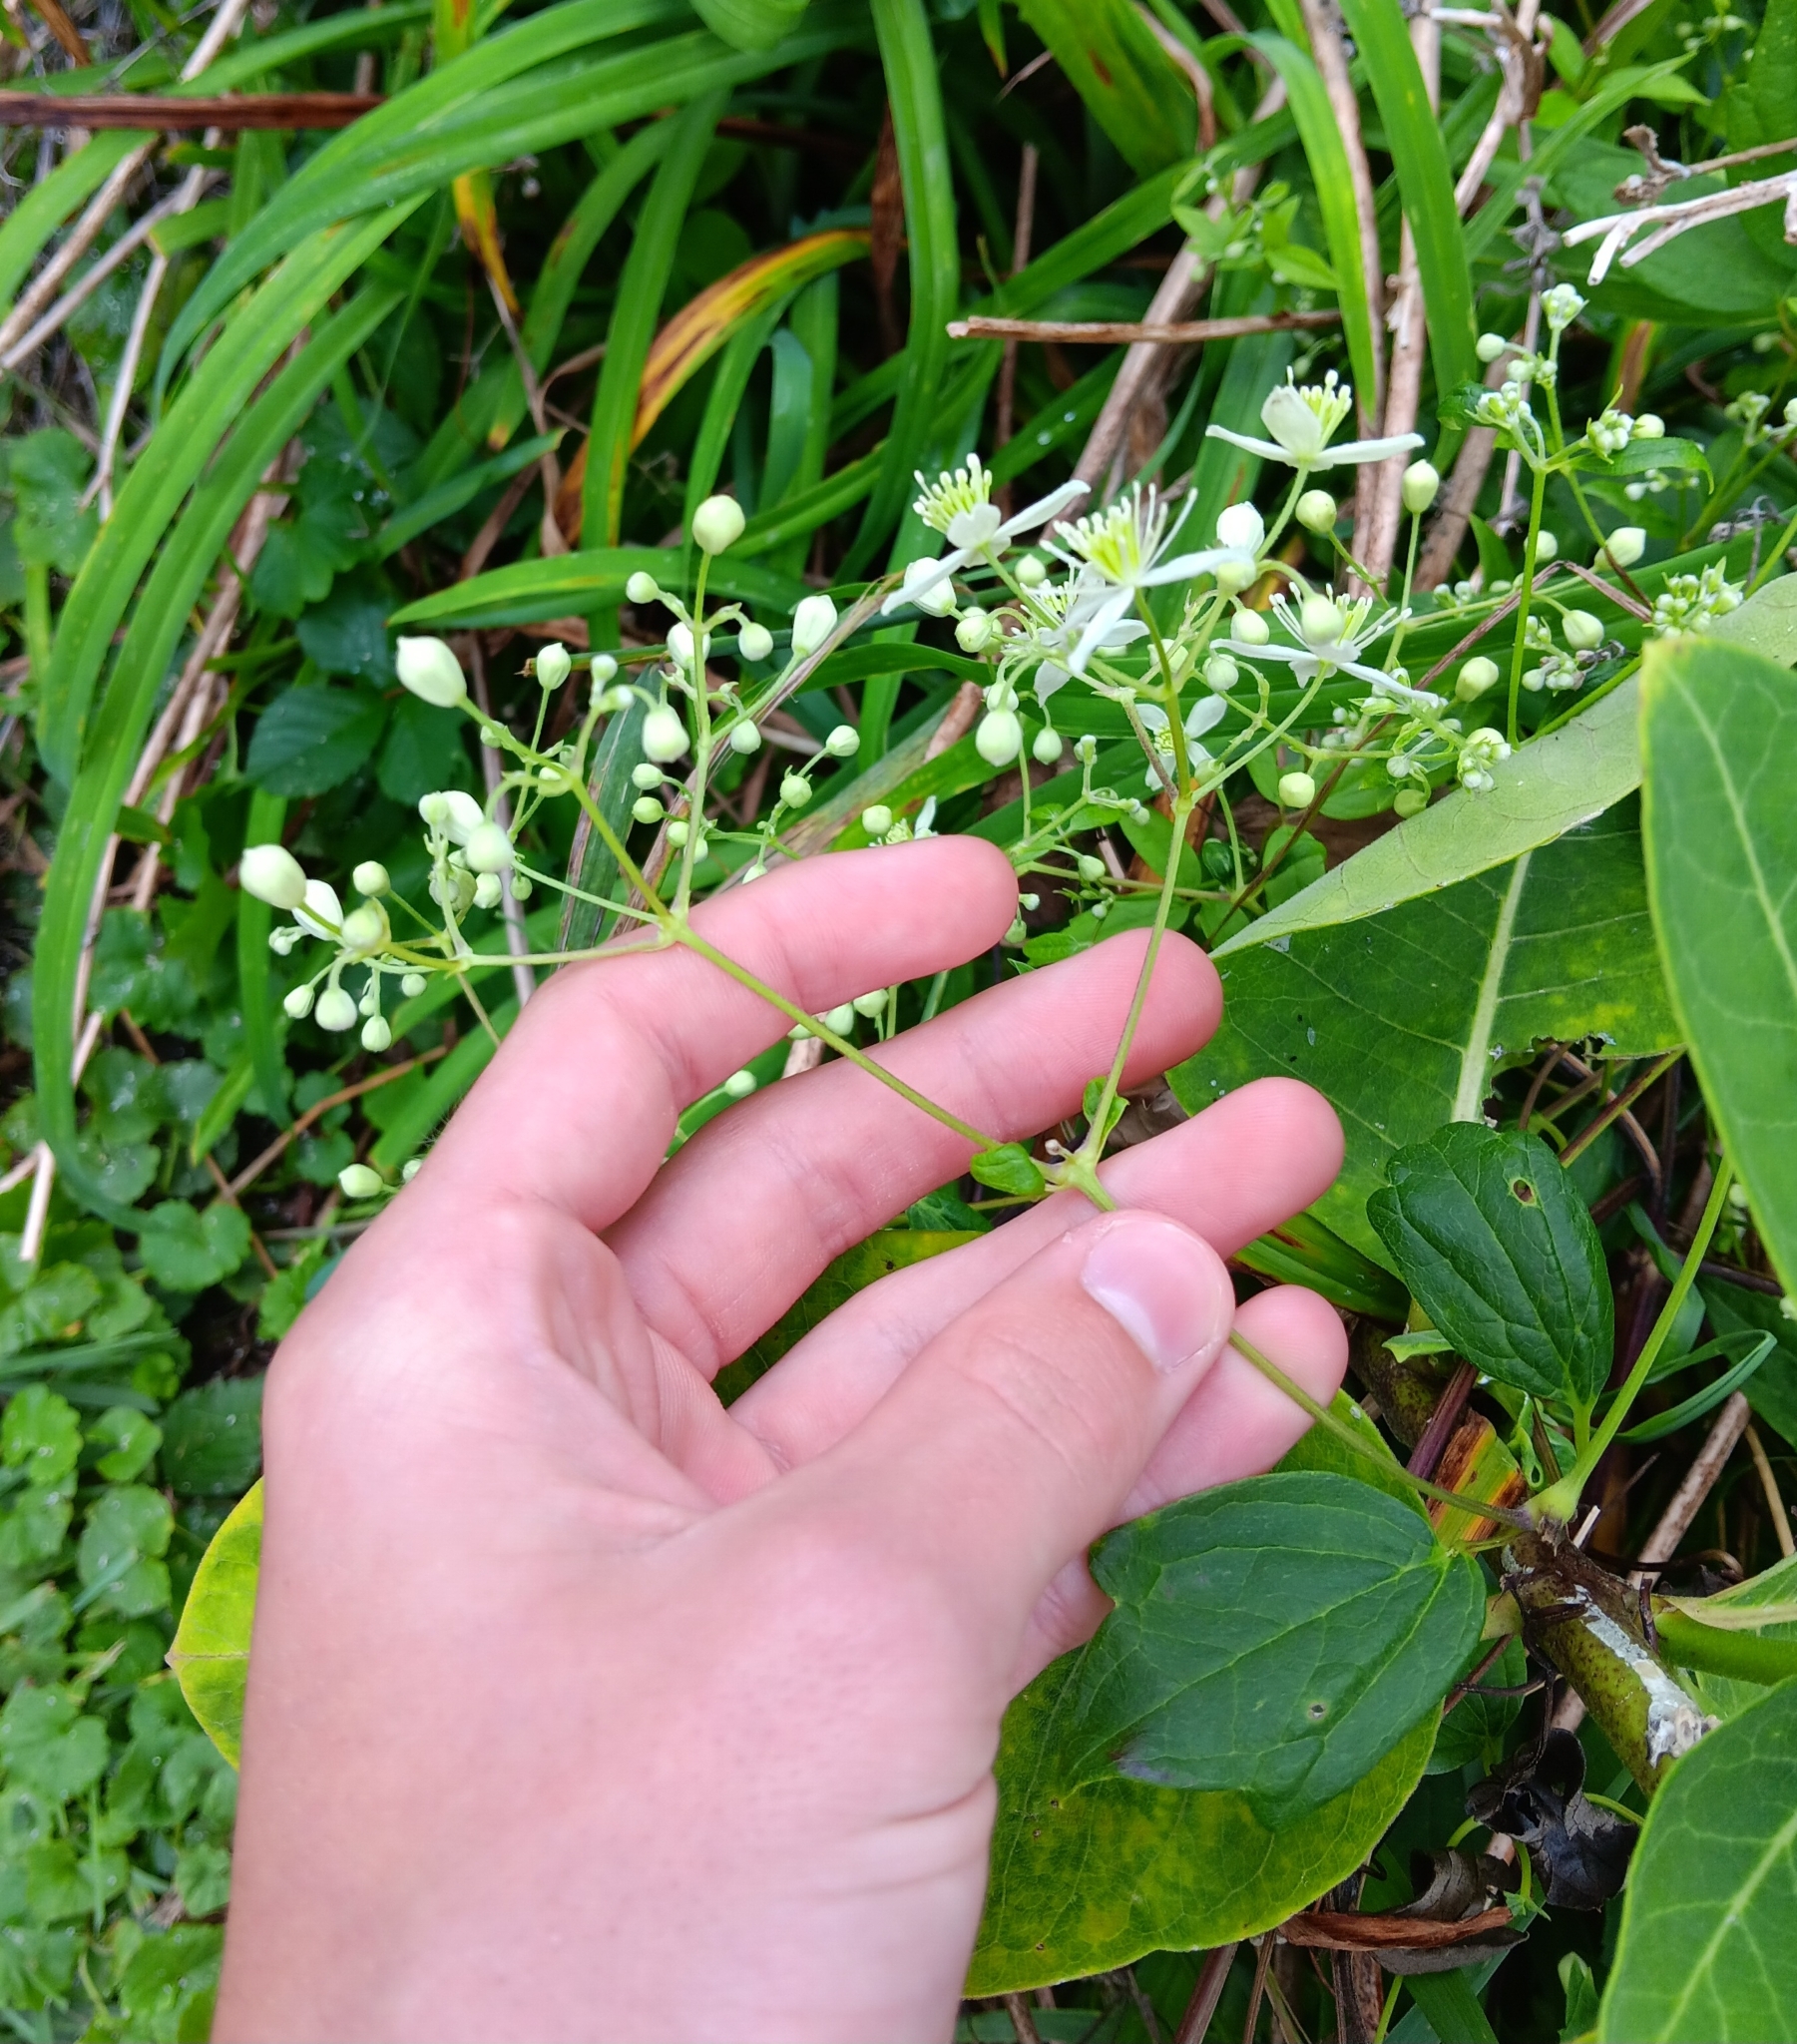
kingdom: Plantae
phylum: Tracheophyta
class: Magnoliopsida
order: Ranunculales
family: Ranunculaceae
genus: Clematis
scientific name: Clematis virginiana
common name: Virgin's-bower
